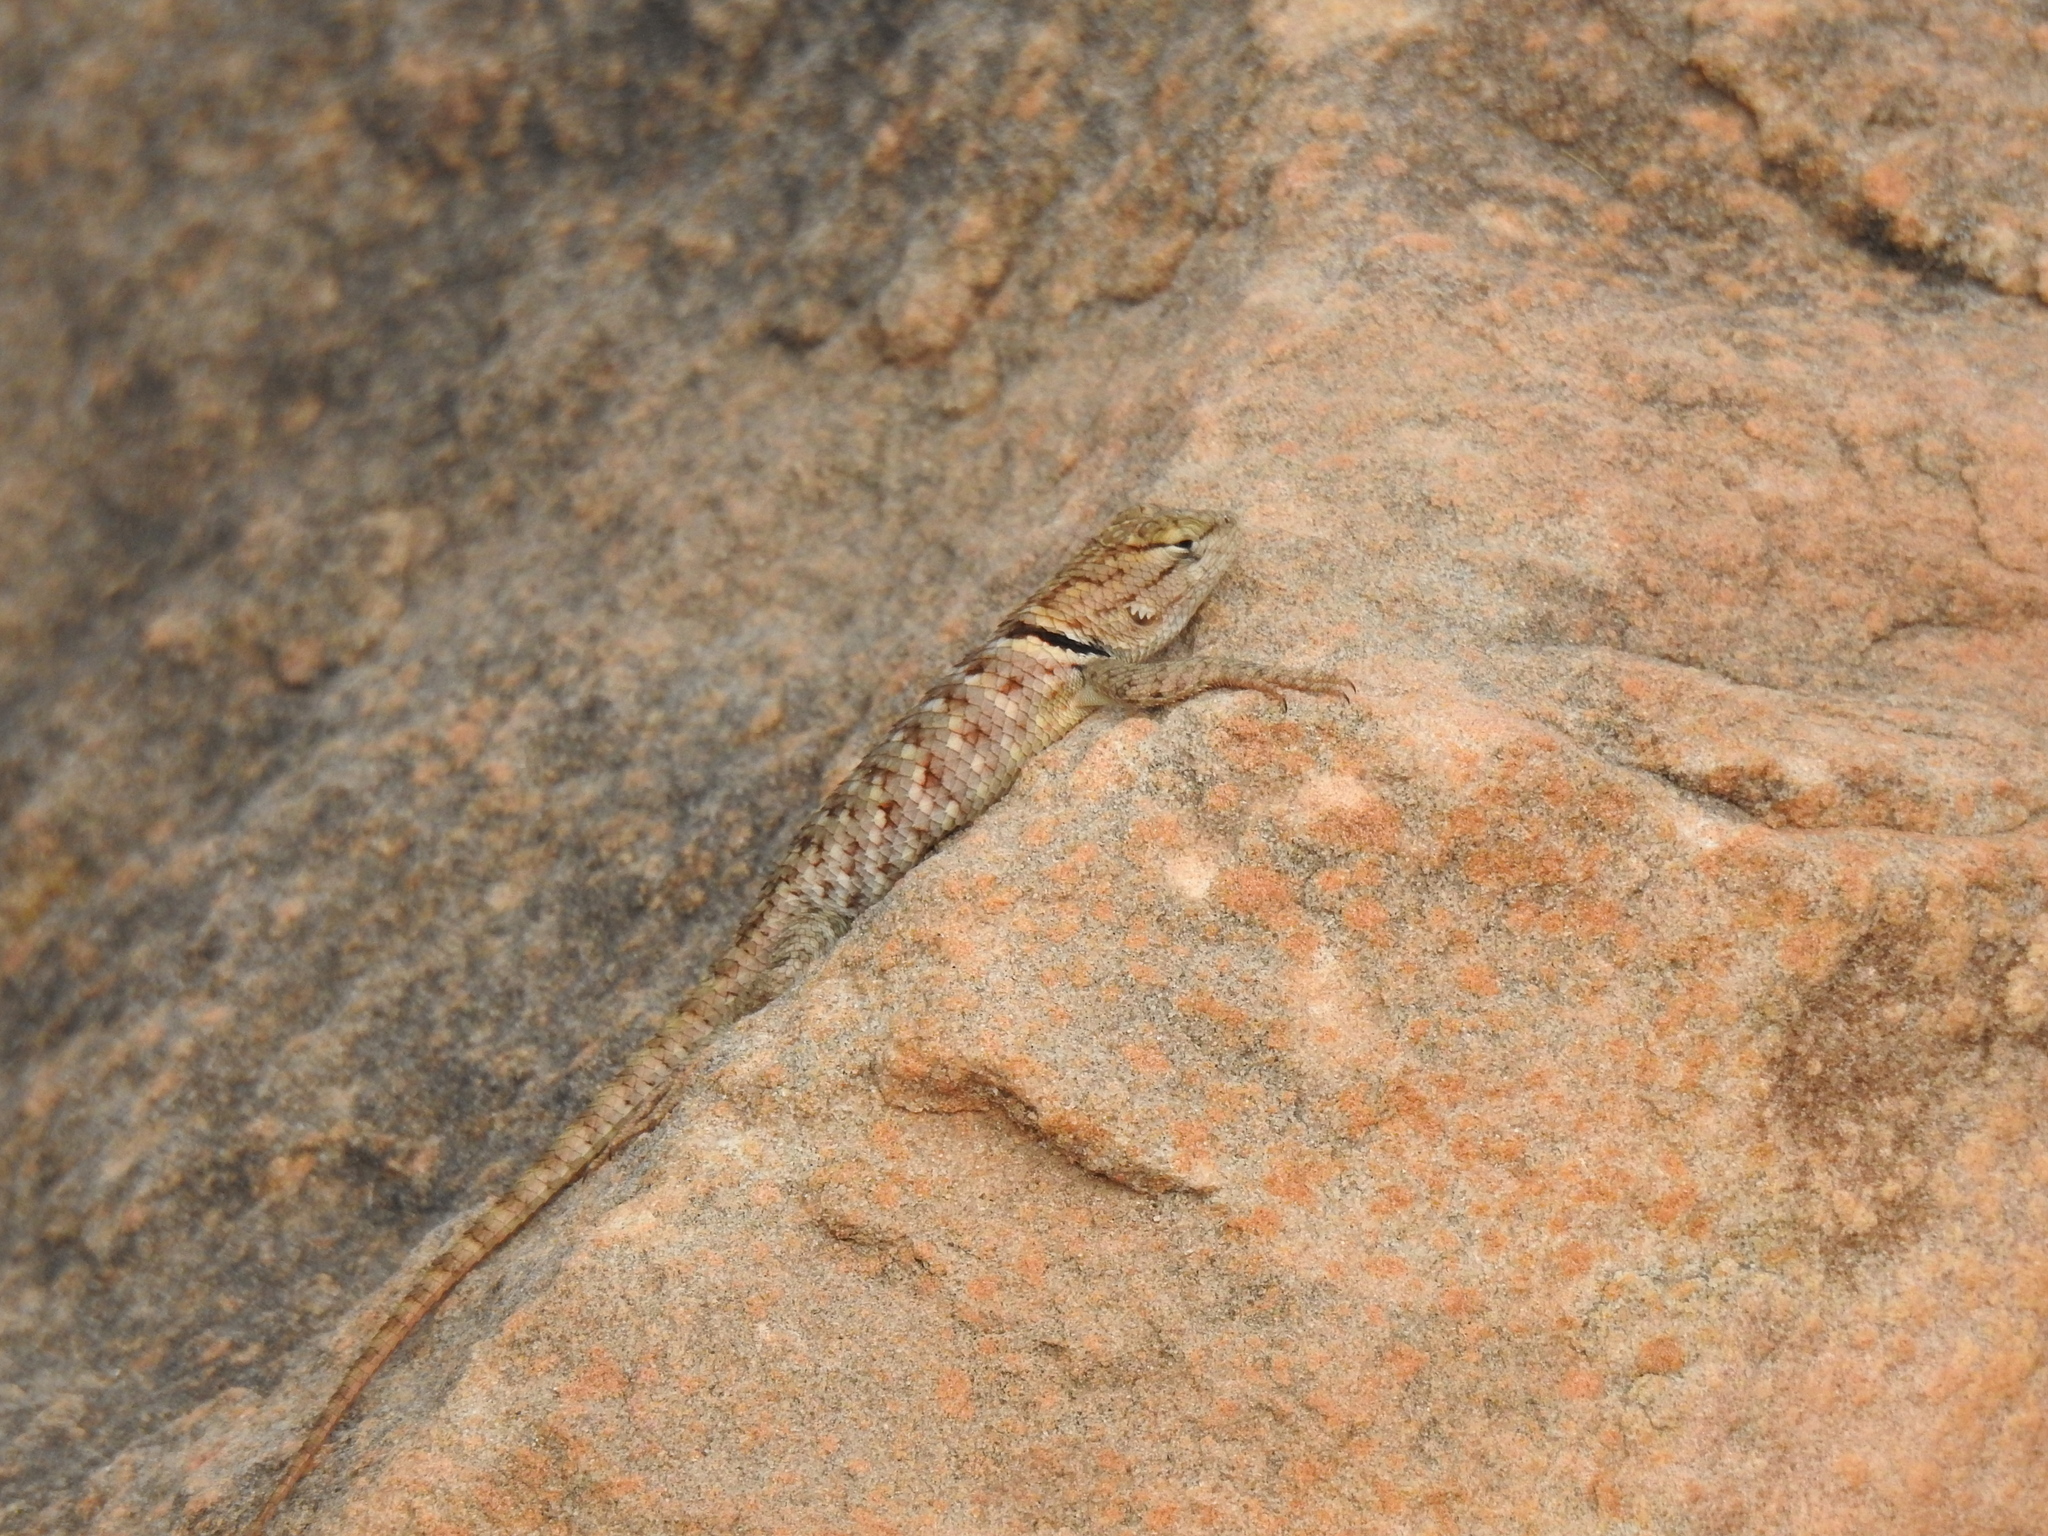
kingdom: Animalia
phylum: Chordata
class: Squamata
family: Phrynosomatidae
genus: Sceloporus
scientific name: Sceloporus uniformis
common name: Yellow-backed spiny lizard
